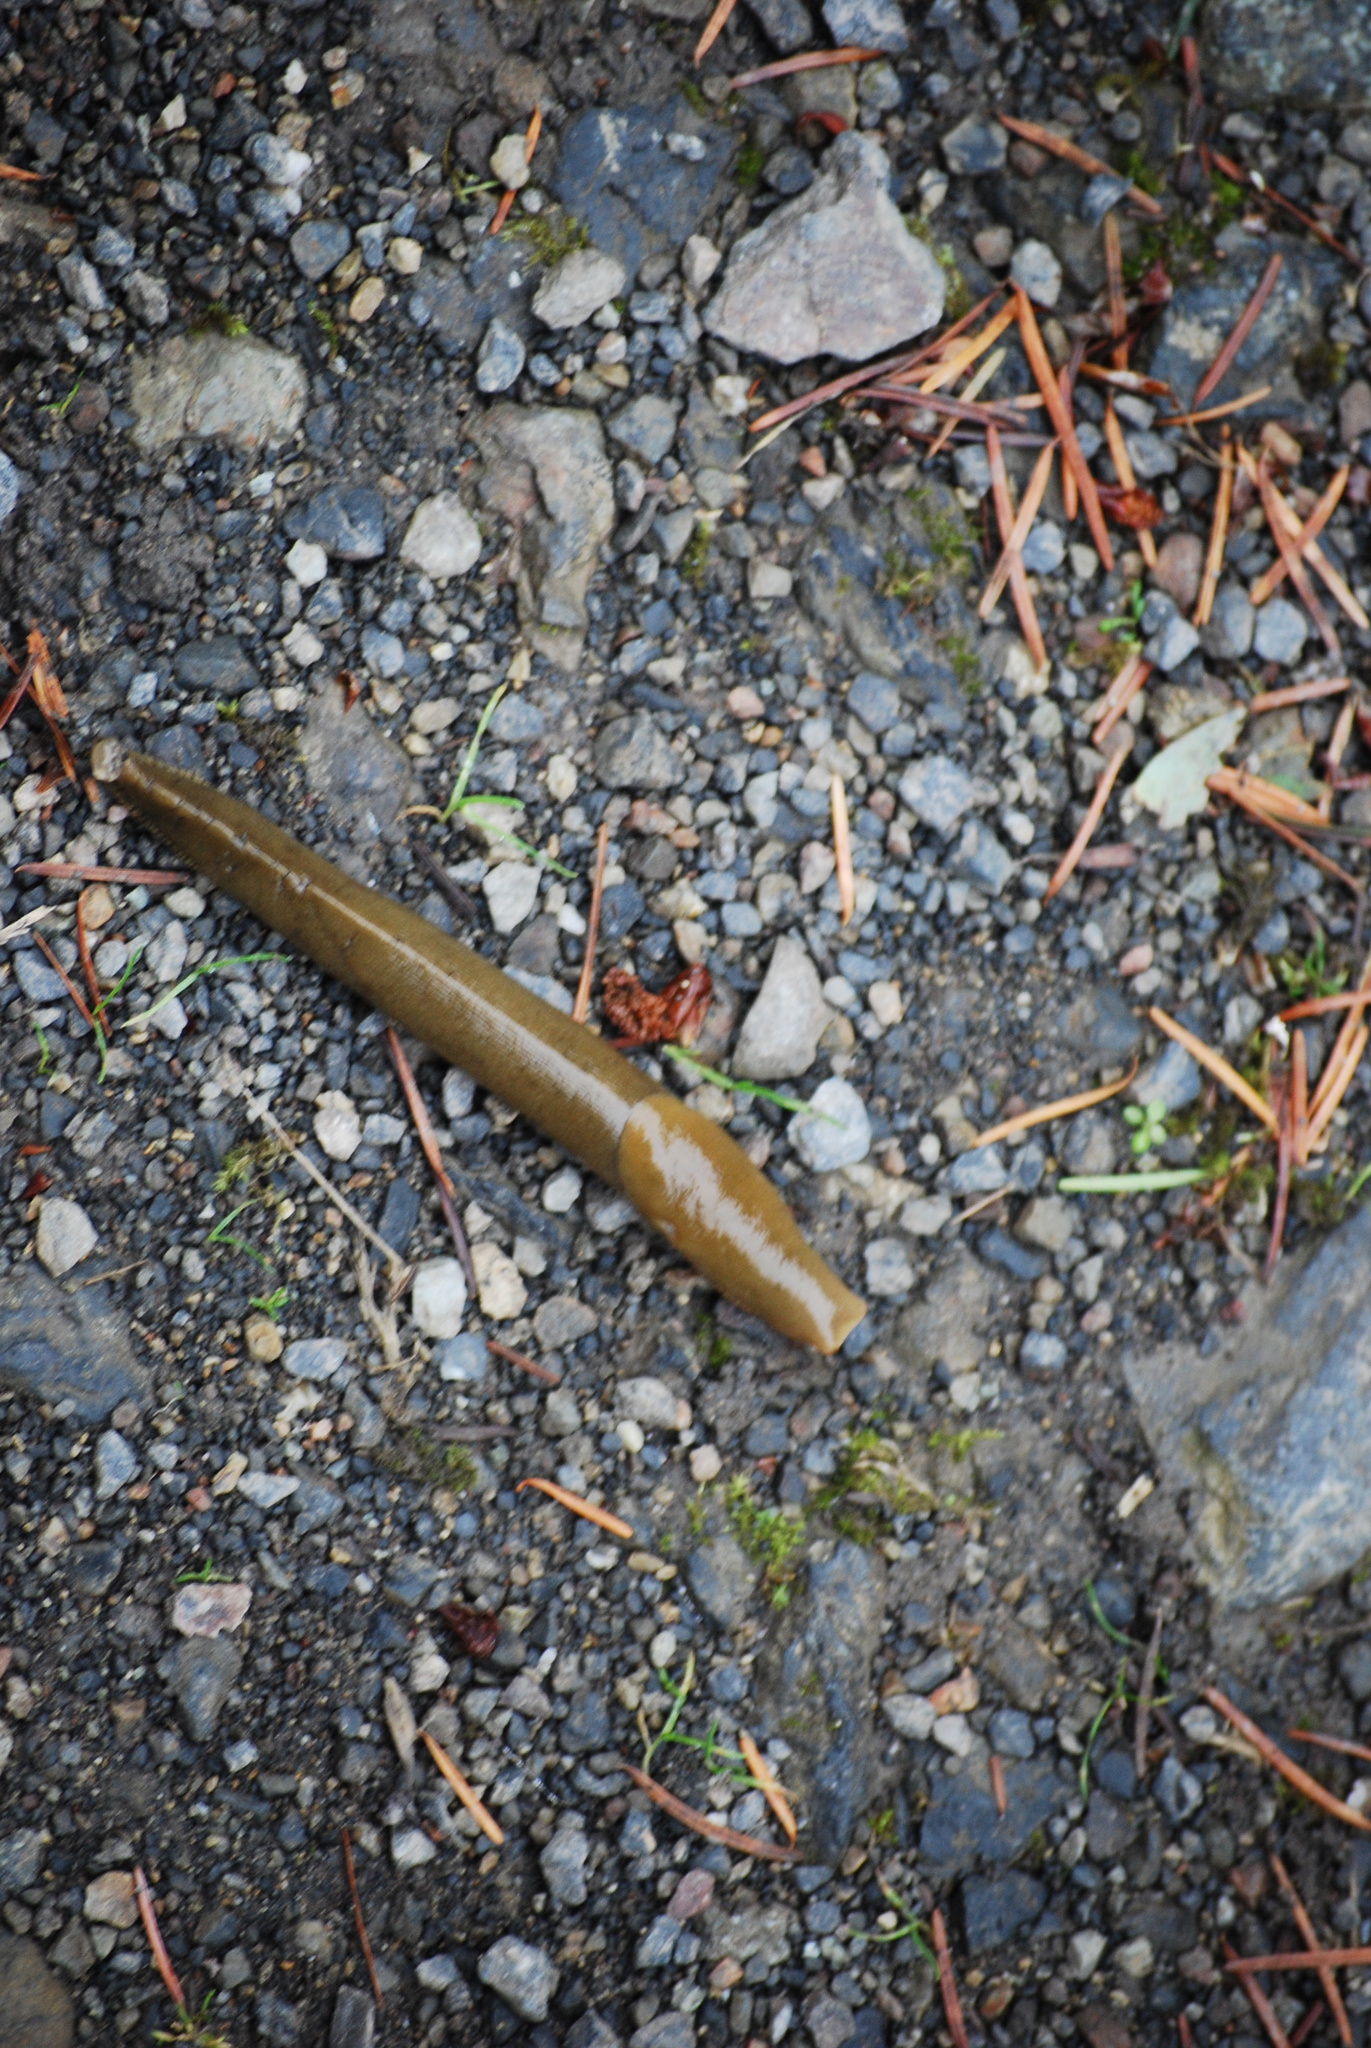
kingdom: Animalia
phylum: Mollusca
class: Gastropoda
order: Stylommatophora
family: Ariolimacidae
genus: Ariolimax
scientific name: Ariolimax columbianus
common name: Pacific banana slug
